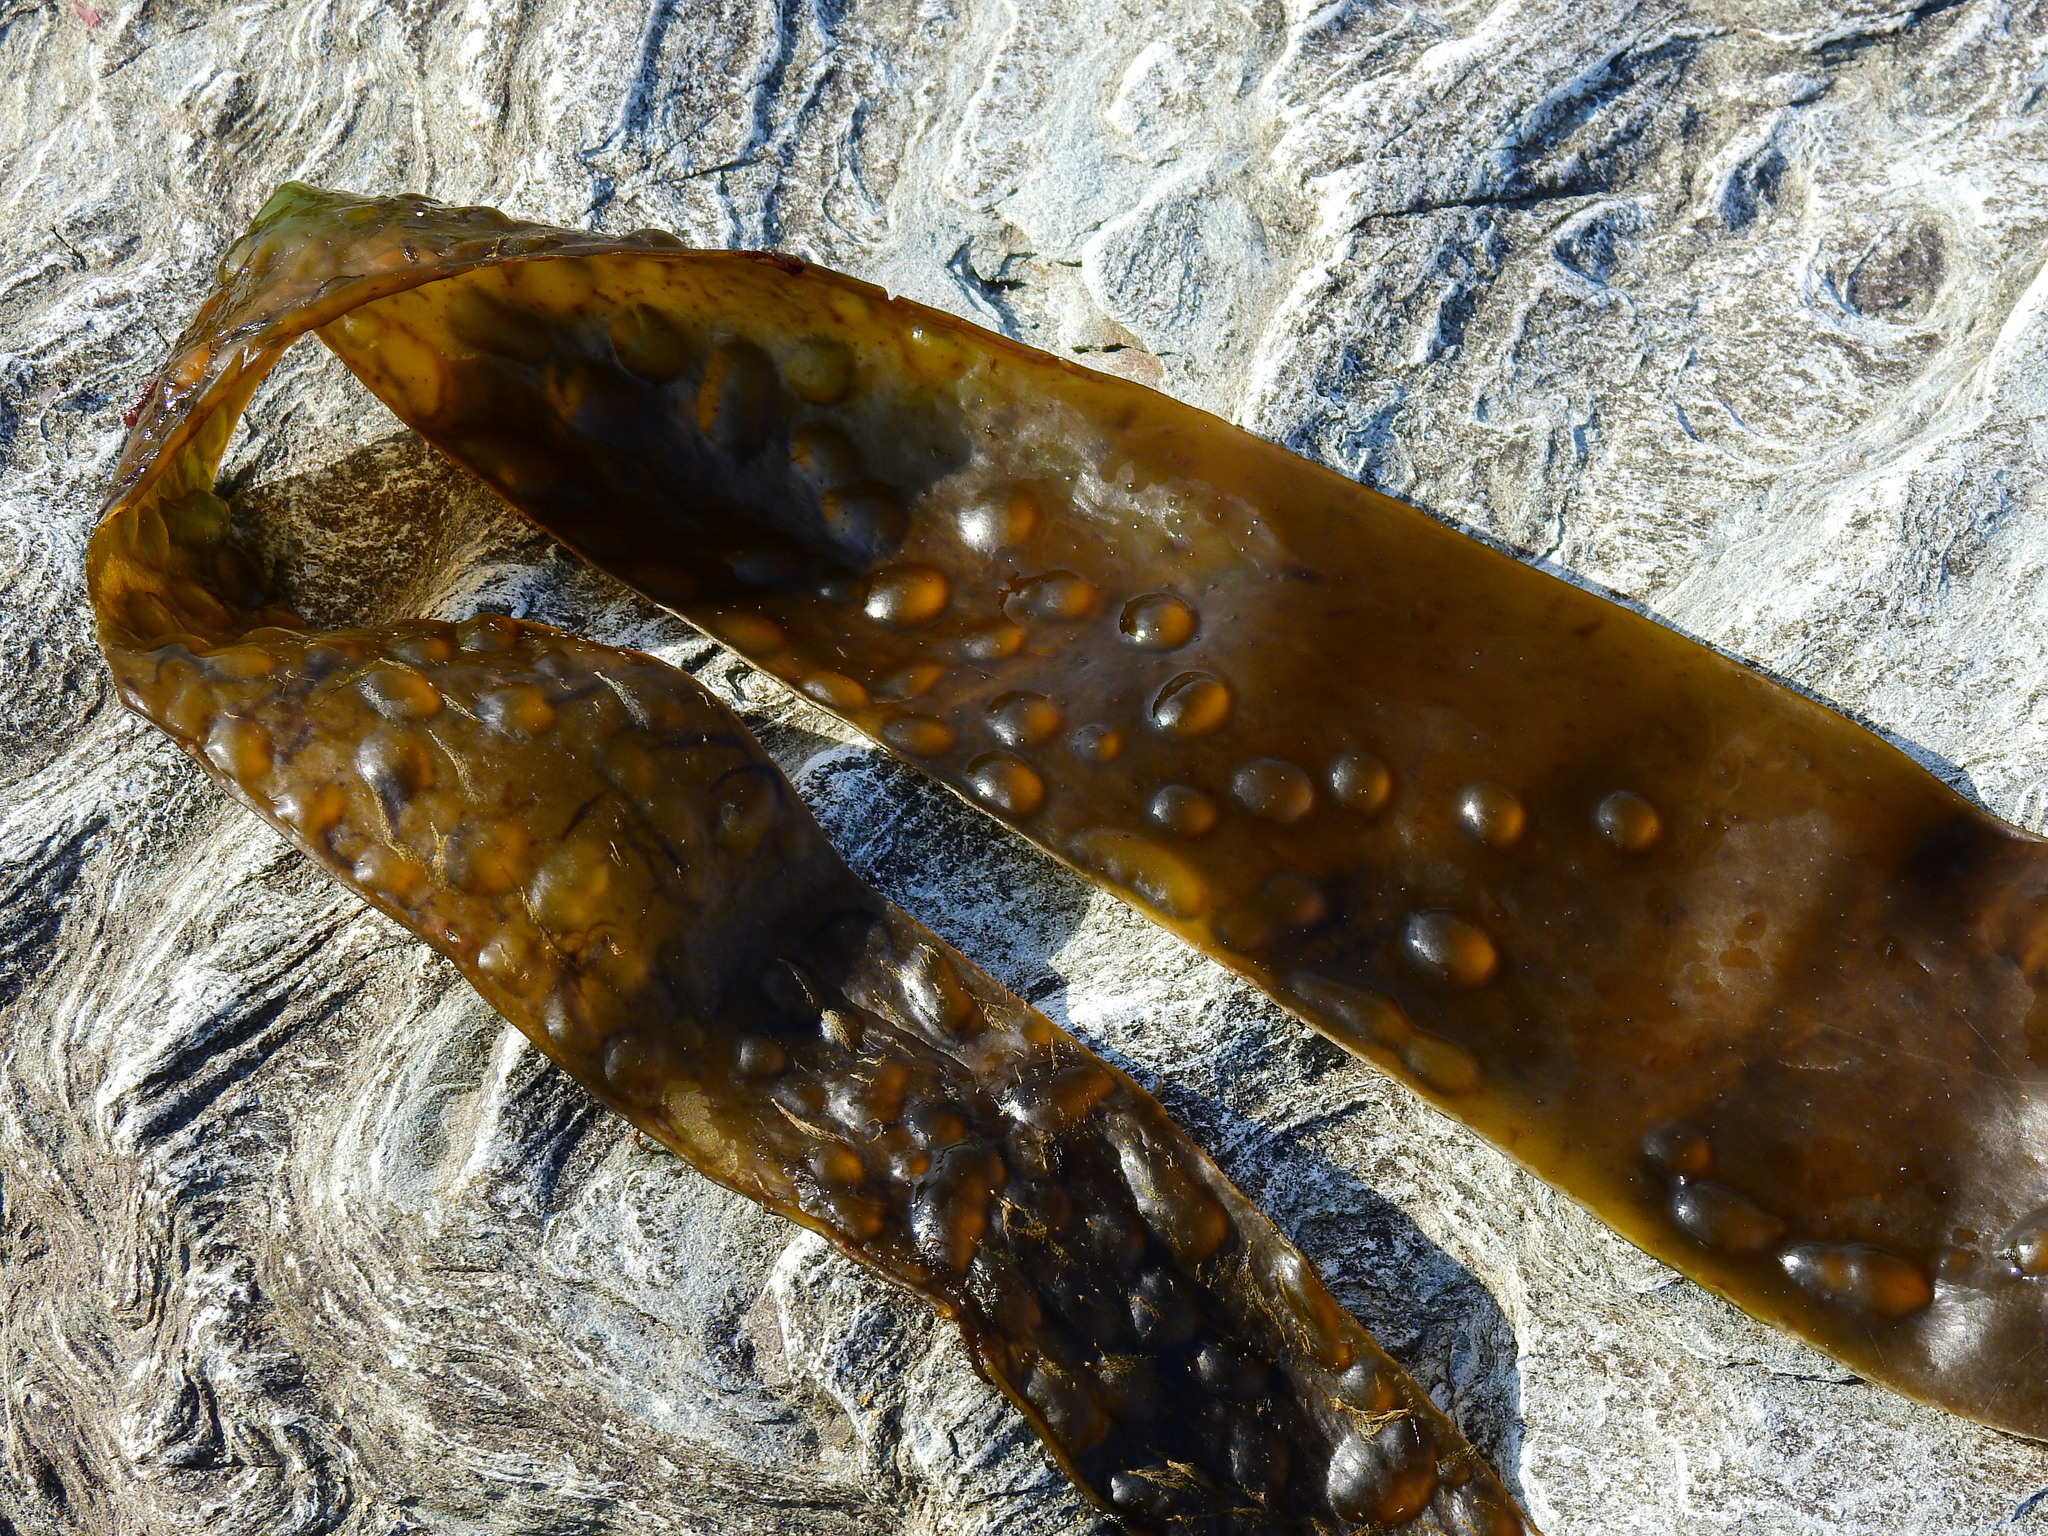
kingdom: Chromista
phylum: Ochrophyta
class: Phaeophyceae
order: Laminariales
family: Laminariaceae
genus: Saccharina
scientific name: Saccharina latissima
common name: Poor man's weather glass
